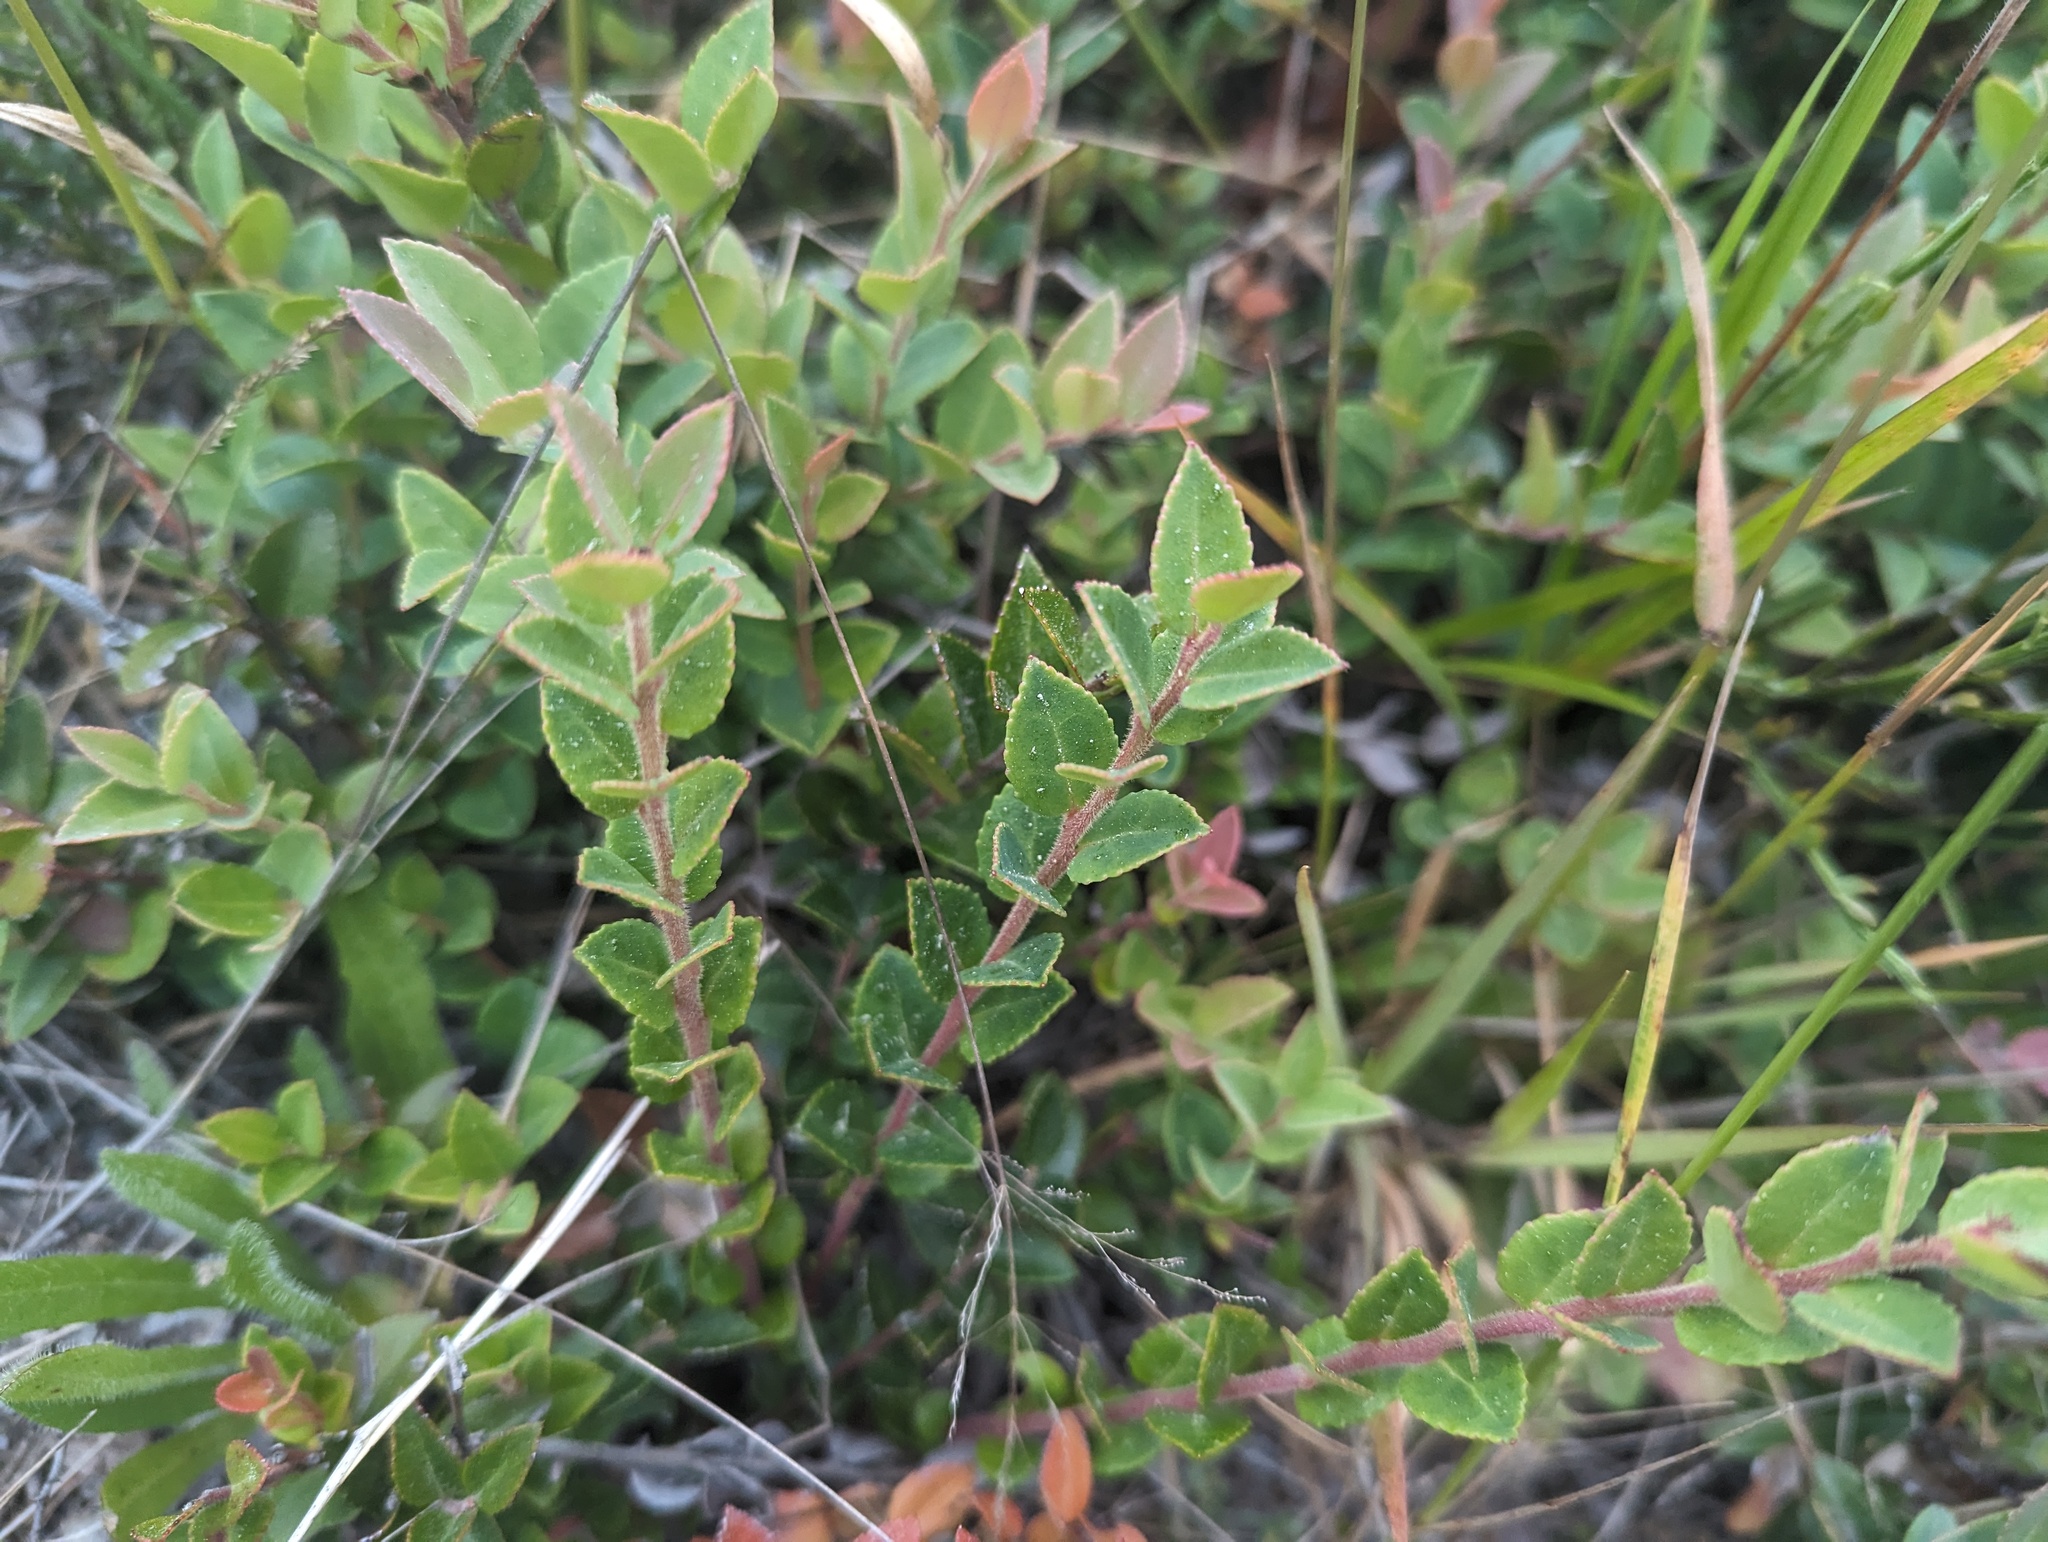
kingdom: Plantae
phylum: Tracheophyta
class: Magnoliopsida
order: Ericales
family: Ericaceae
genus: Vaccinium
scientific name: Vaccinium ovatum
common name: California-huckleberry
